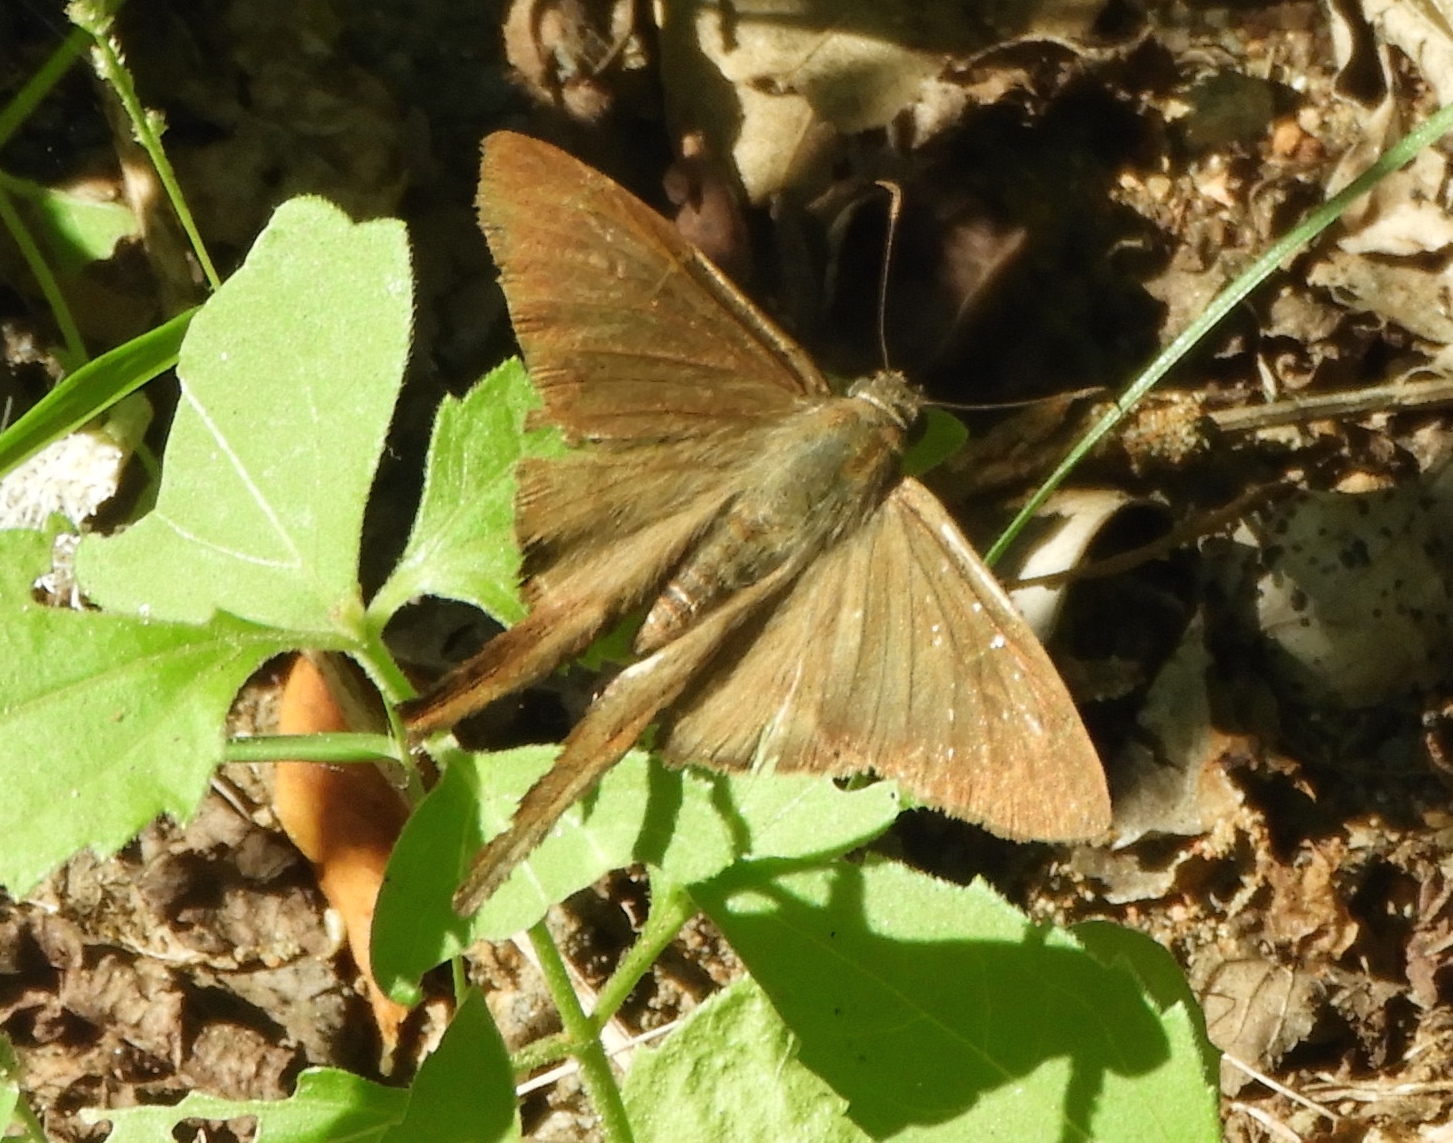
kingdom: Animalia
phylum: Arthropoda
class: Insecta
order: Lepidoptera
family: Hesperiidae
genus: Urbanus
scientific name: Urbanus procne
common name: Brown longtail
